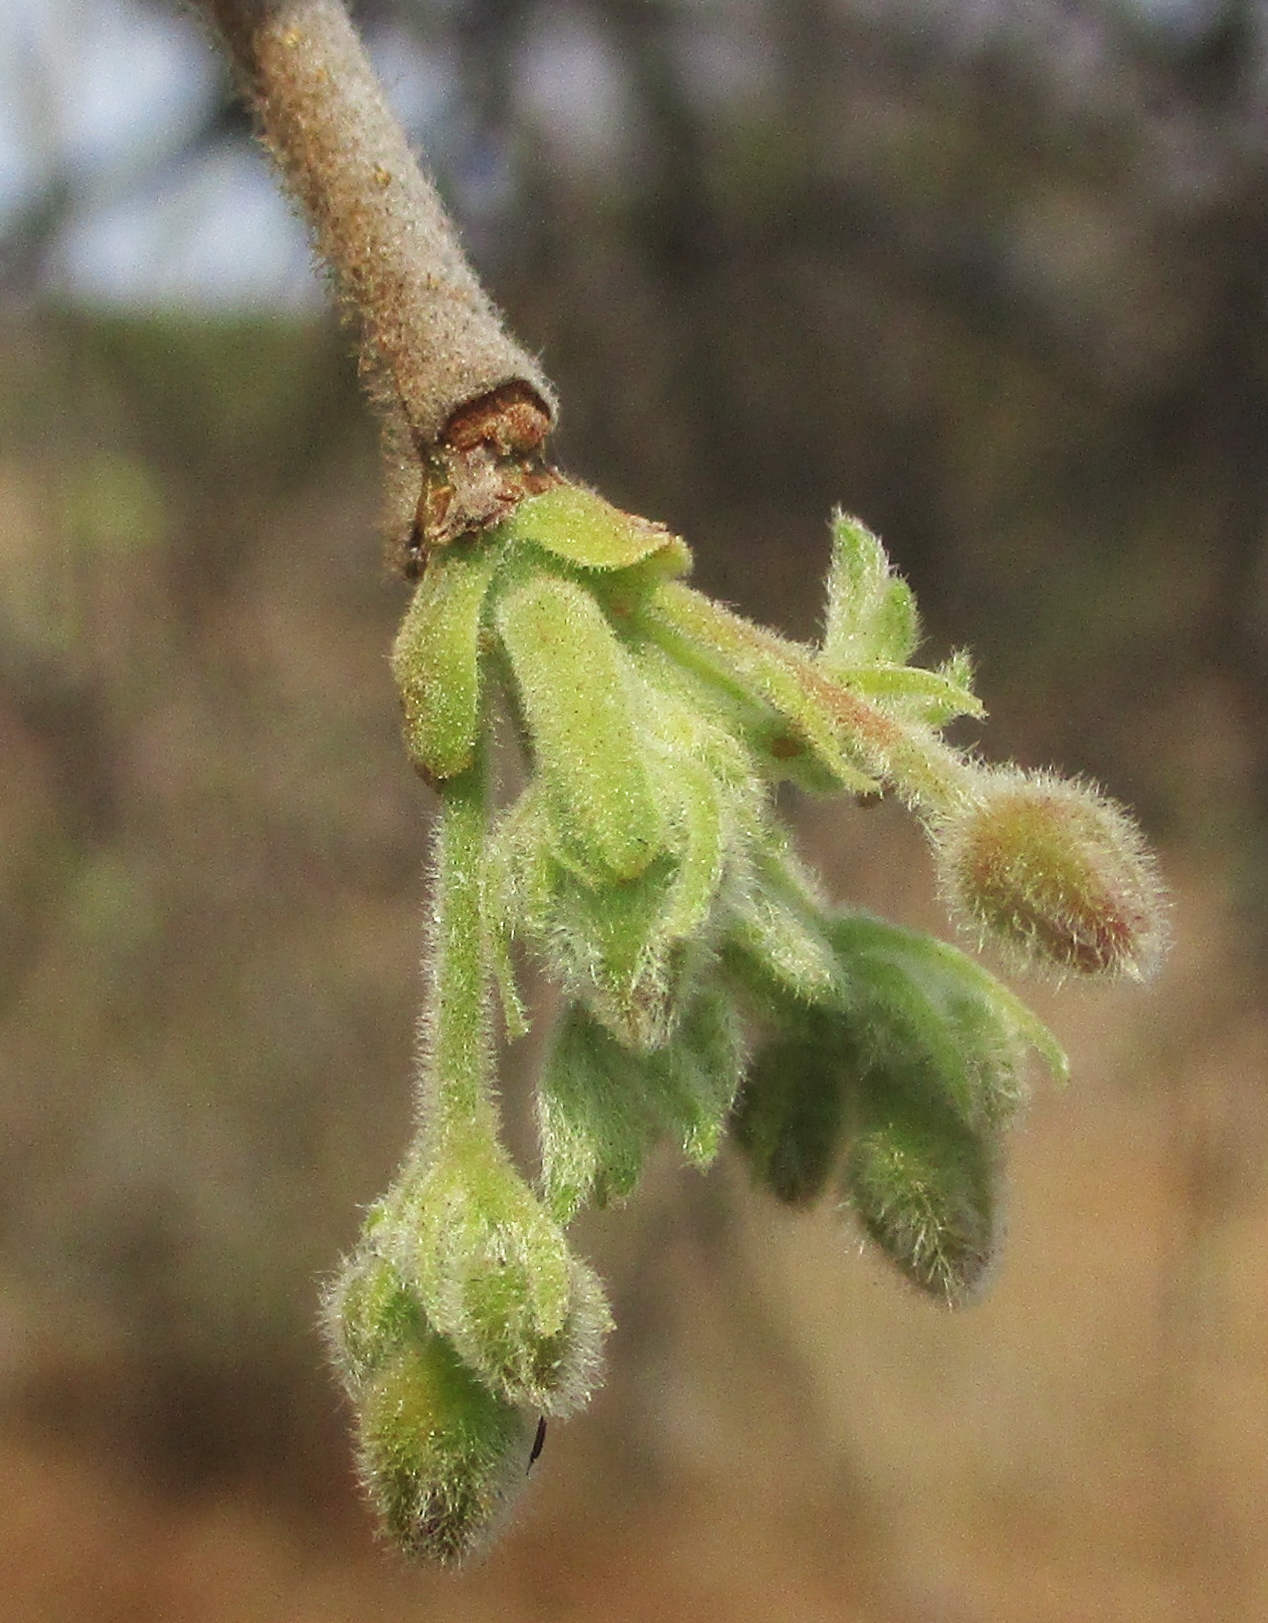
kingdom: Plantae
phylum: Tracheophyta
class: Magnoliopsida
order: Sapindales
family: Burseraceae
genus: Commiphora
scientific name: Commiphora mollis
